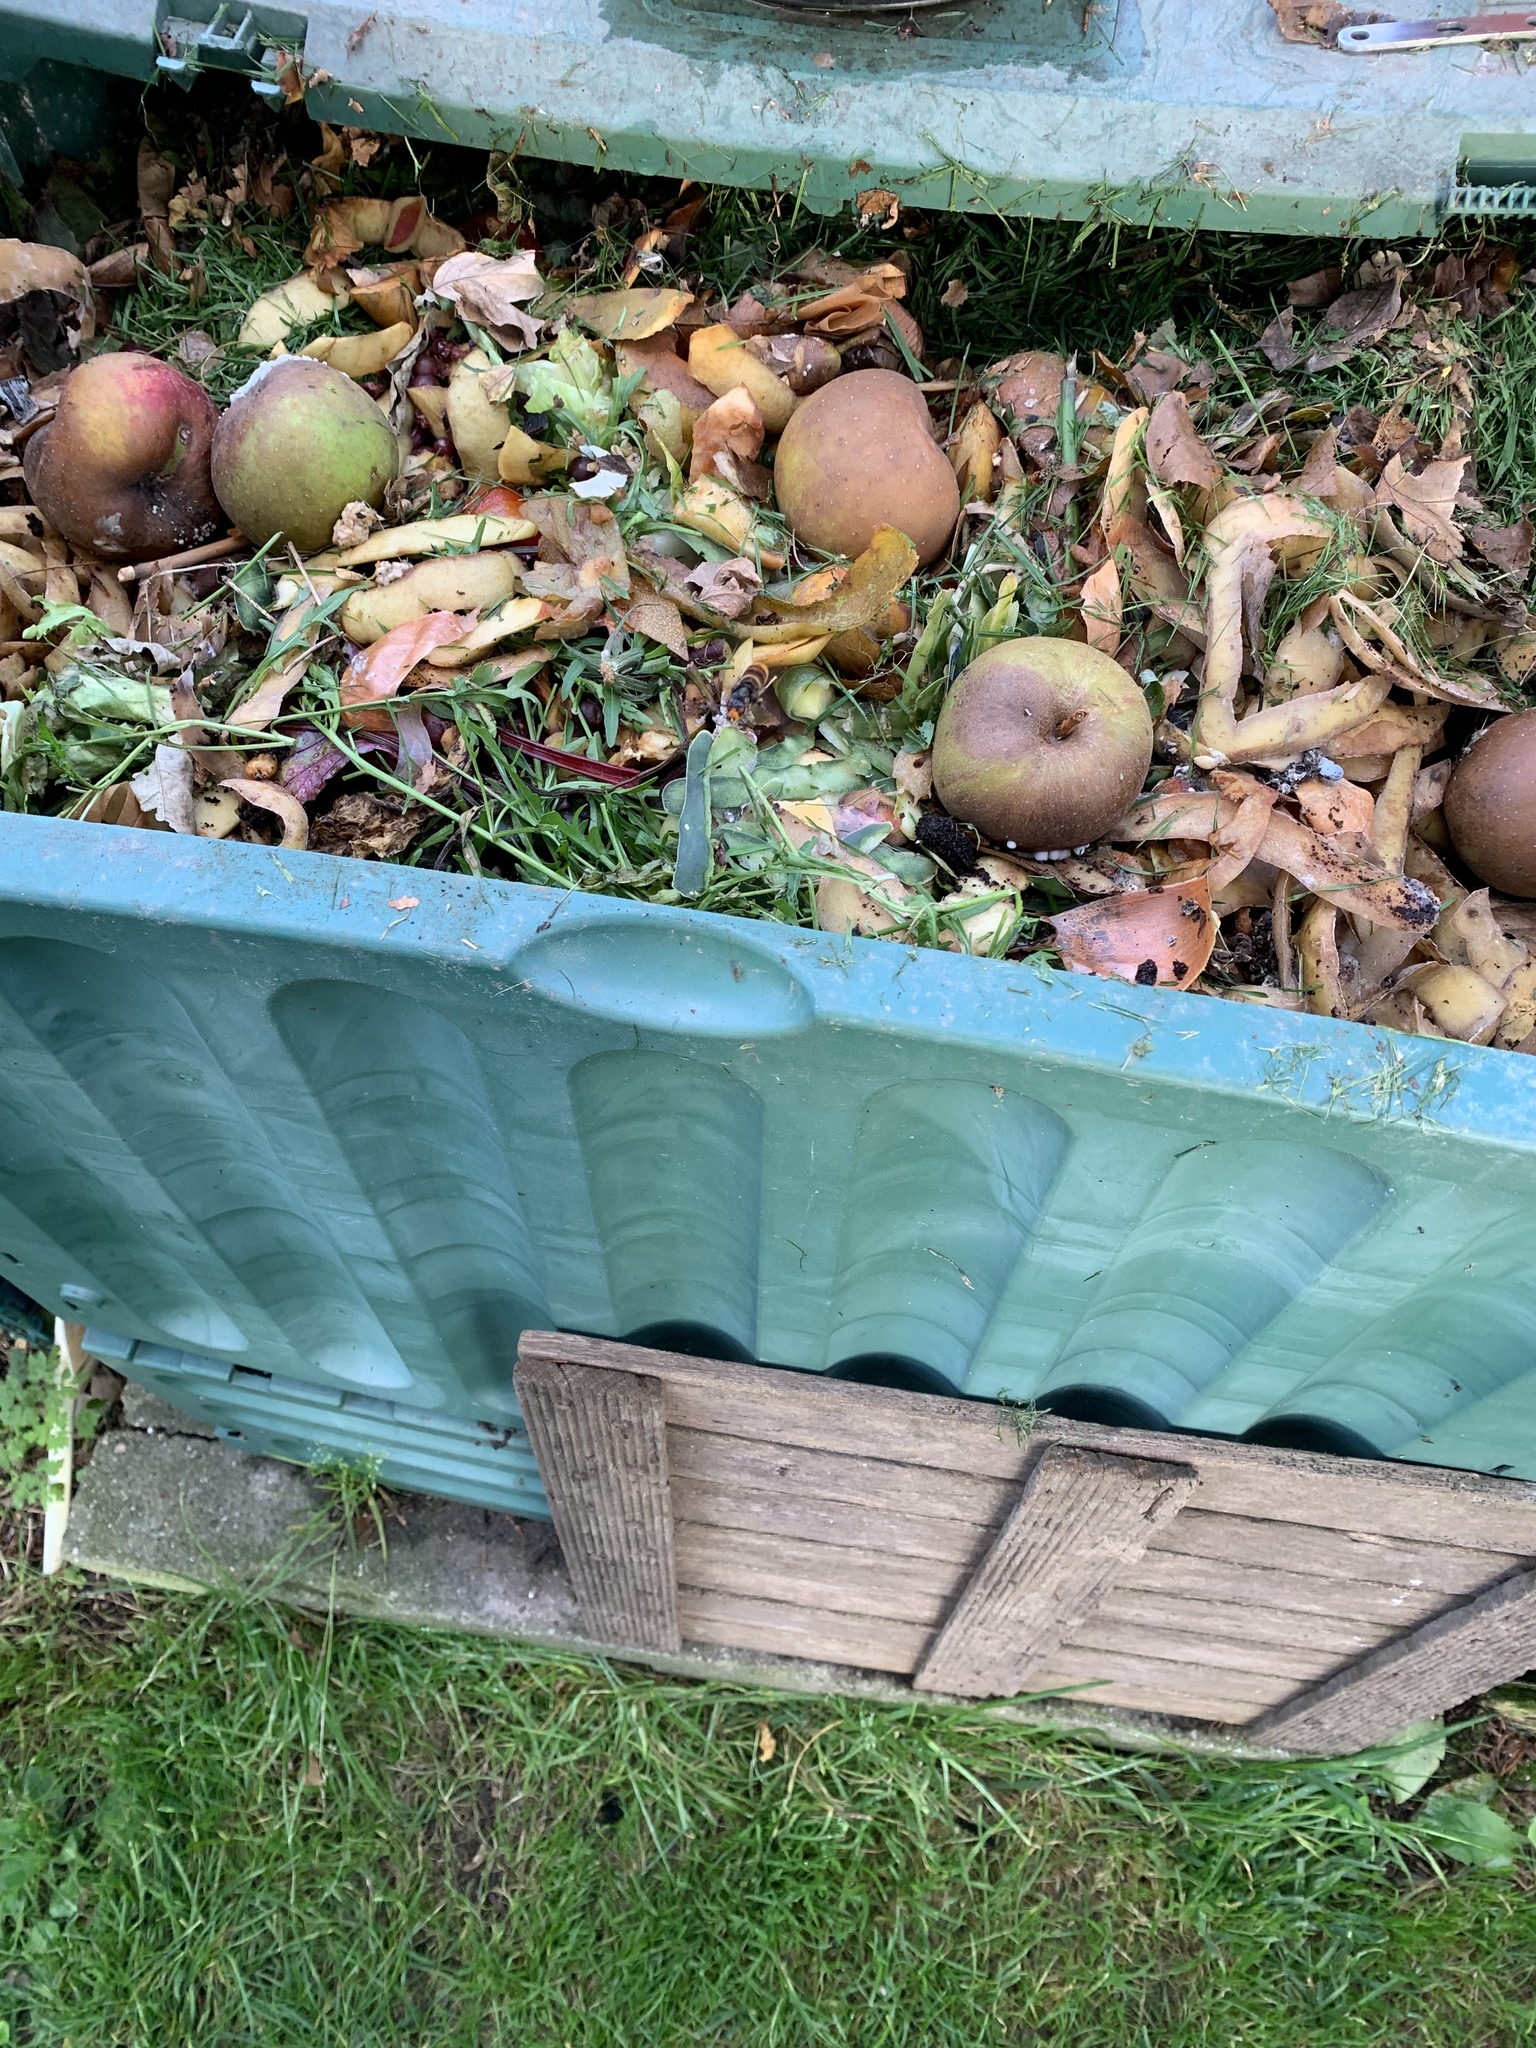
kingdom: Animalia
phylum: Arthropoda
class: Insecta
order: Hymenoptera
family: Vespidae
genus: Vespa
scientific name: Vespa velutina
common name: Asian hornet
